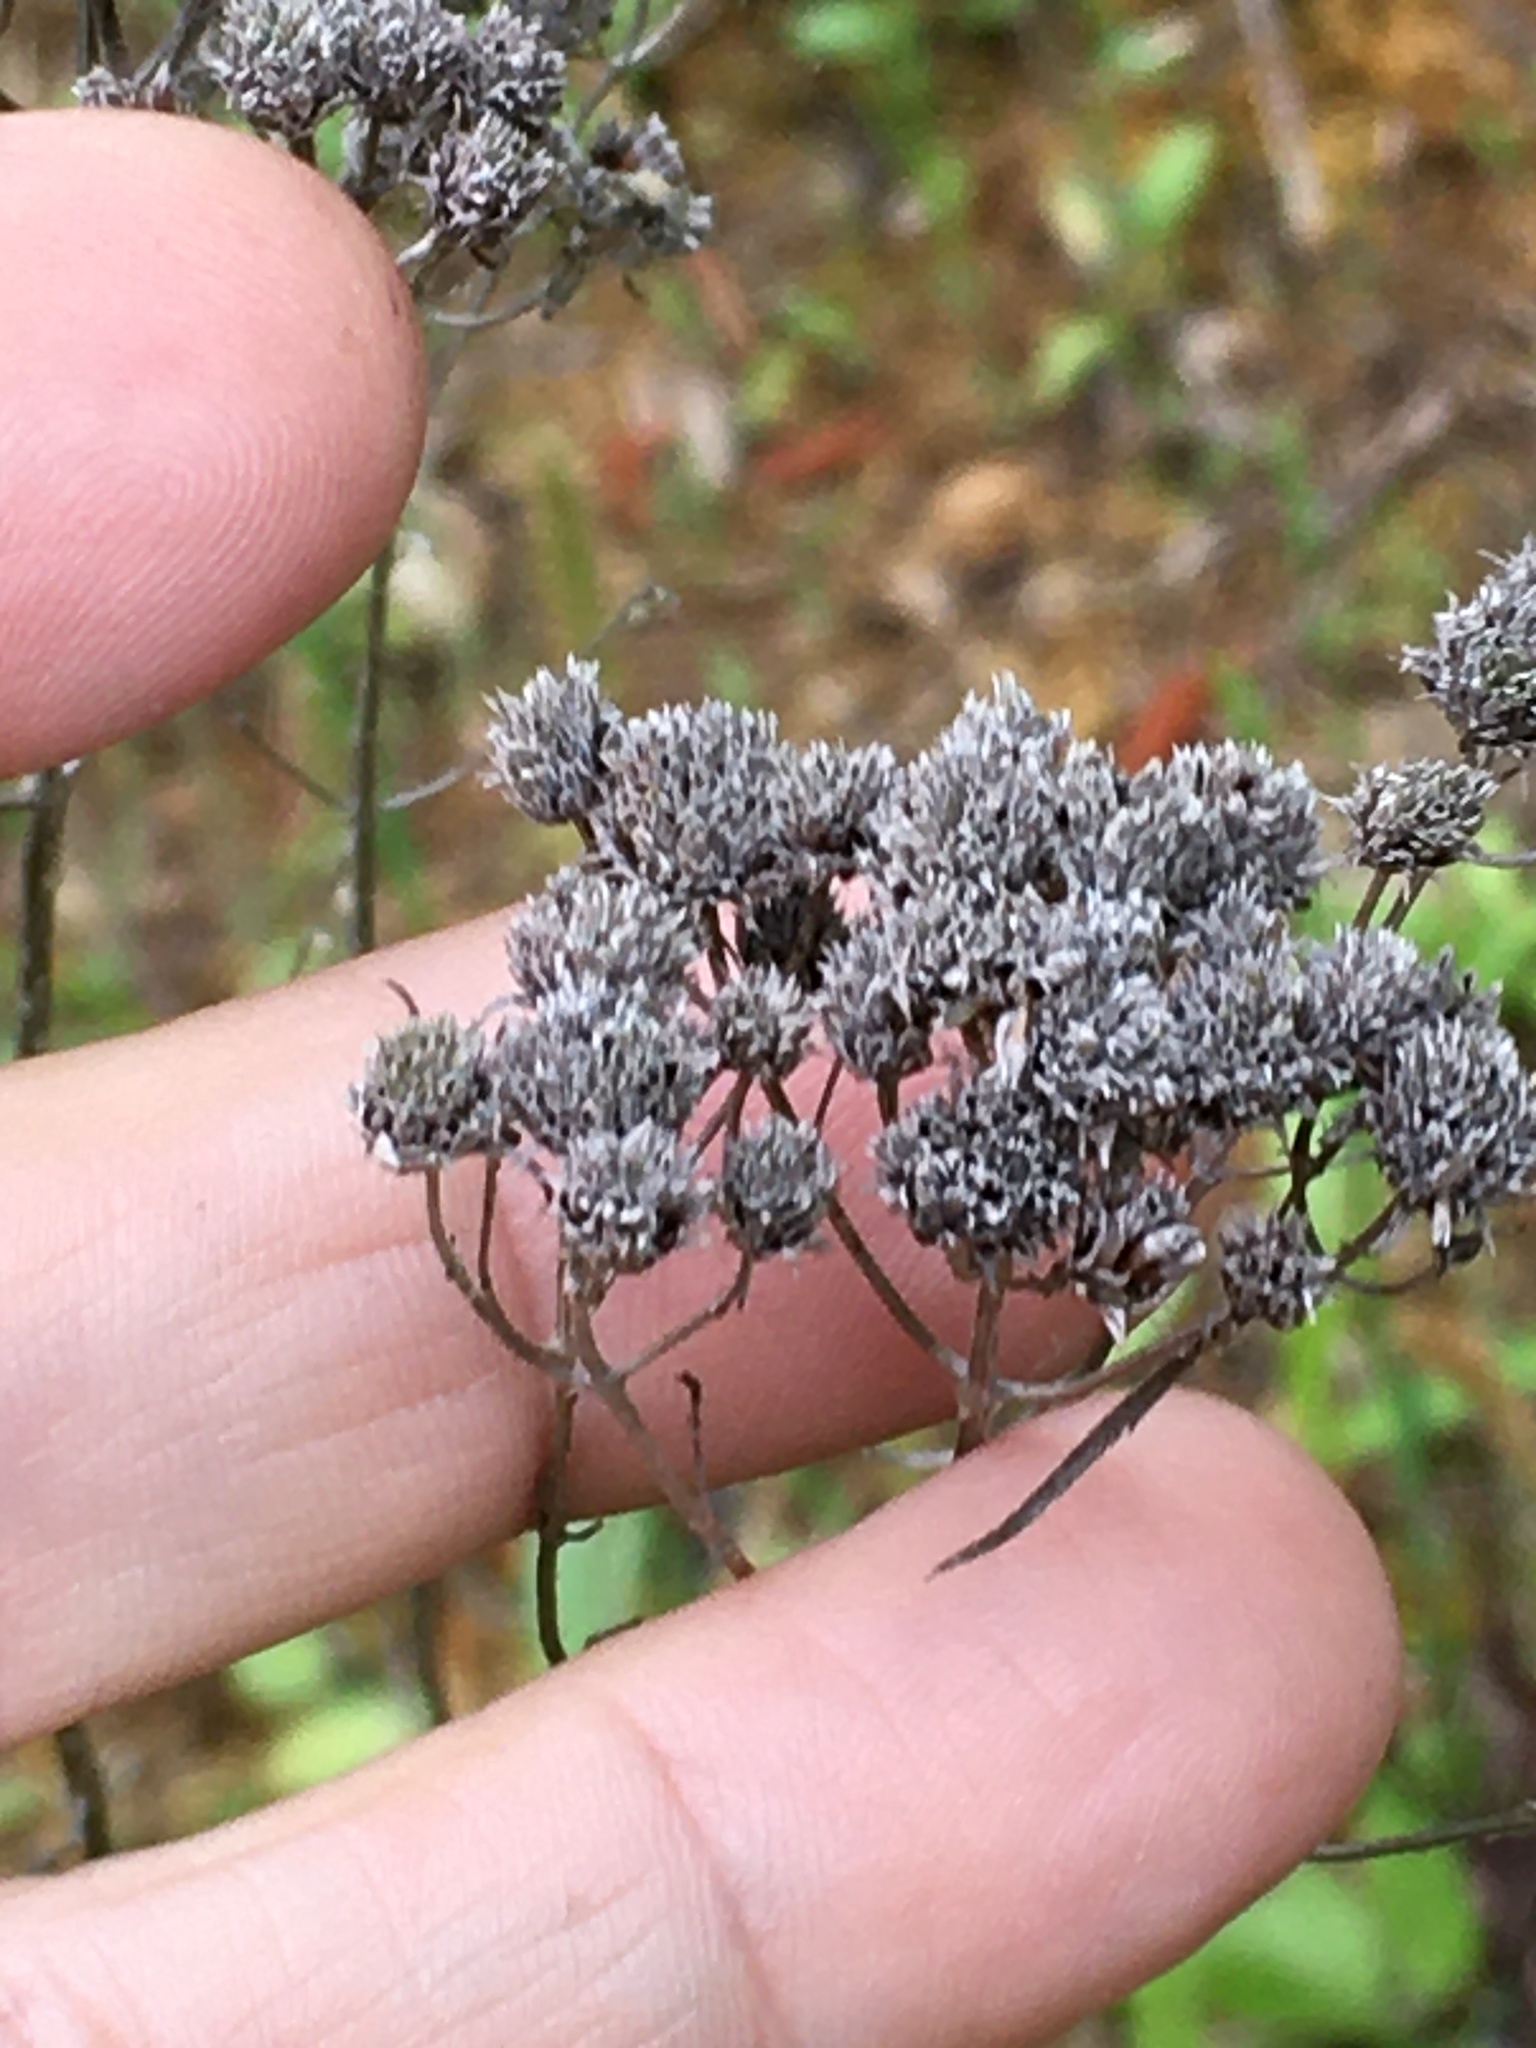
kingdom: Plantae
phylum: Tracheophyta
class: Magnoliopsida
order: Lamiales
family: Lamiaceae
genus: Pycnanthemum
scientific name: Pycnanthemum tenuifolium
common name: Narrow-leaf mountain-mint
